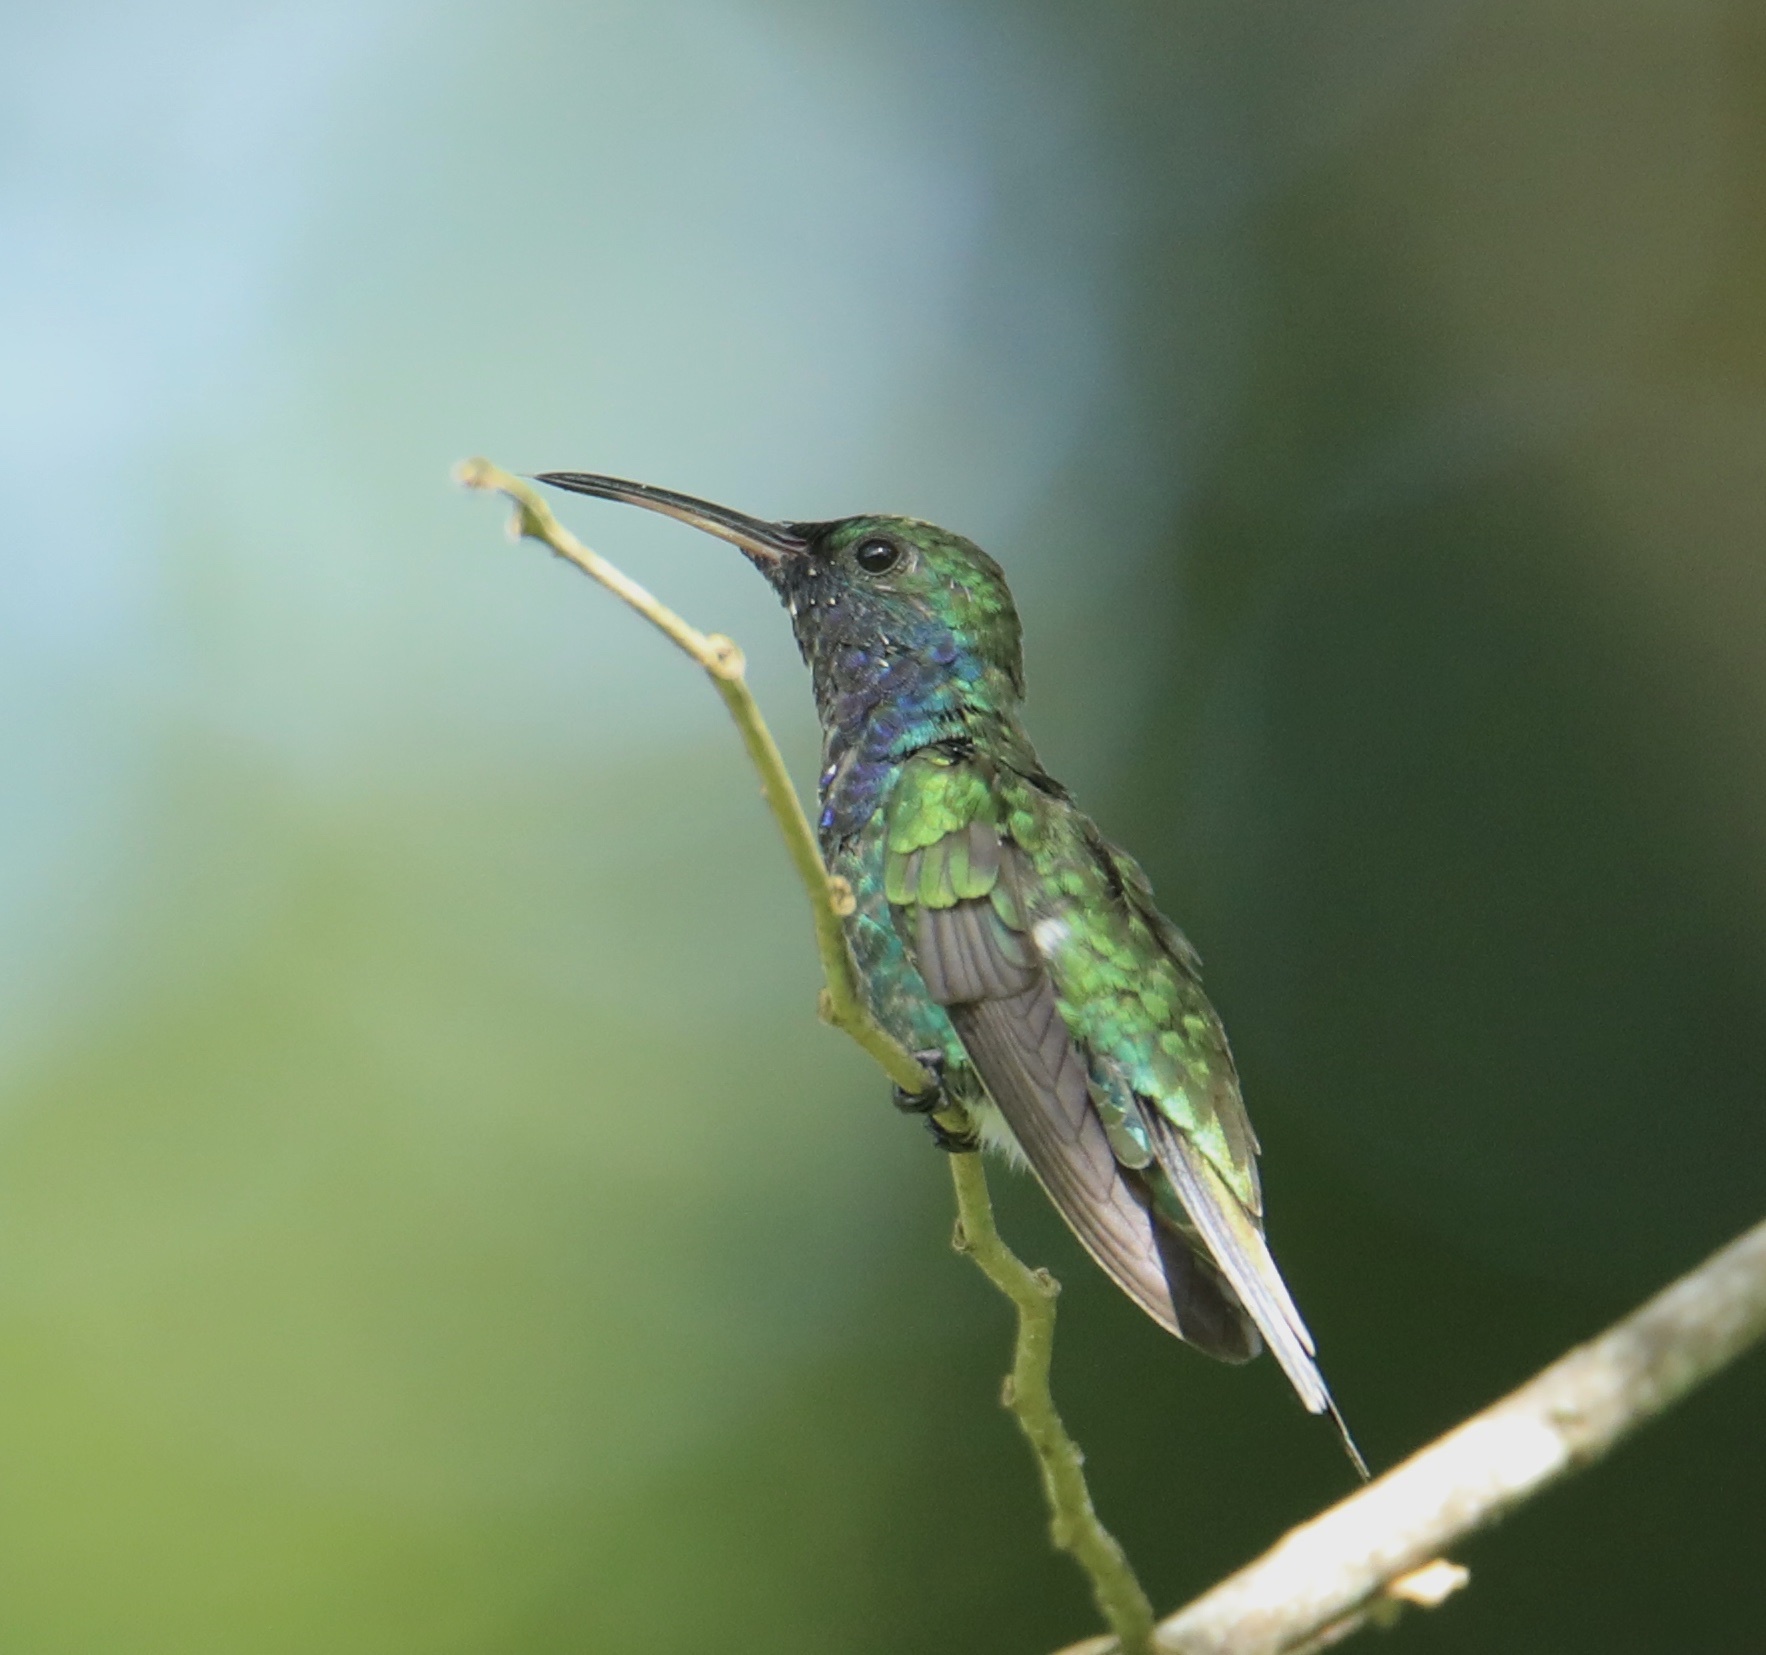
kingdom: Animalia
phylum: Chordata
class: Aves
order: Apodiformes
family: Trochilidae
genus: Chrysuronia
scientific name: Chrysuronia coeruleogularis
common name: Sapphire-throated hummingbird
